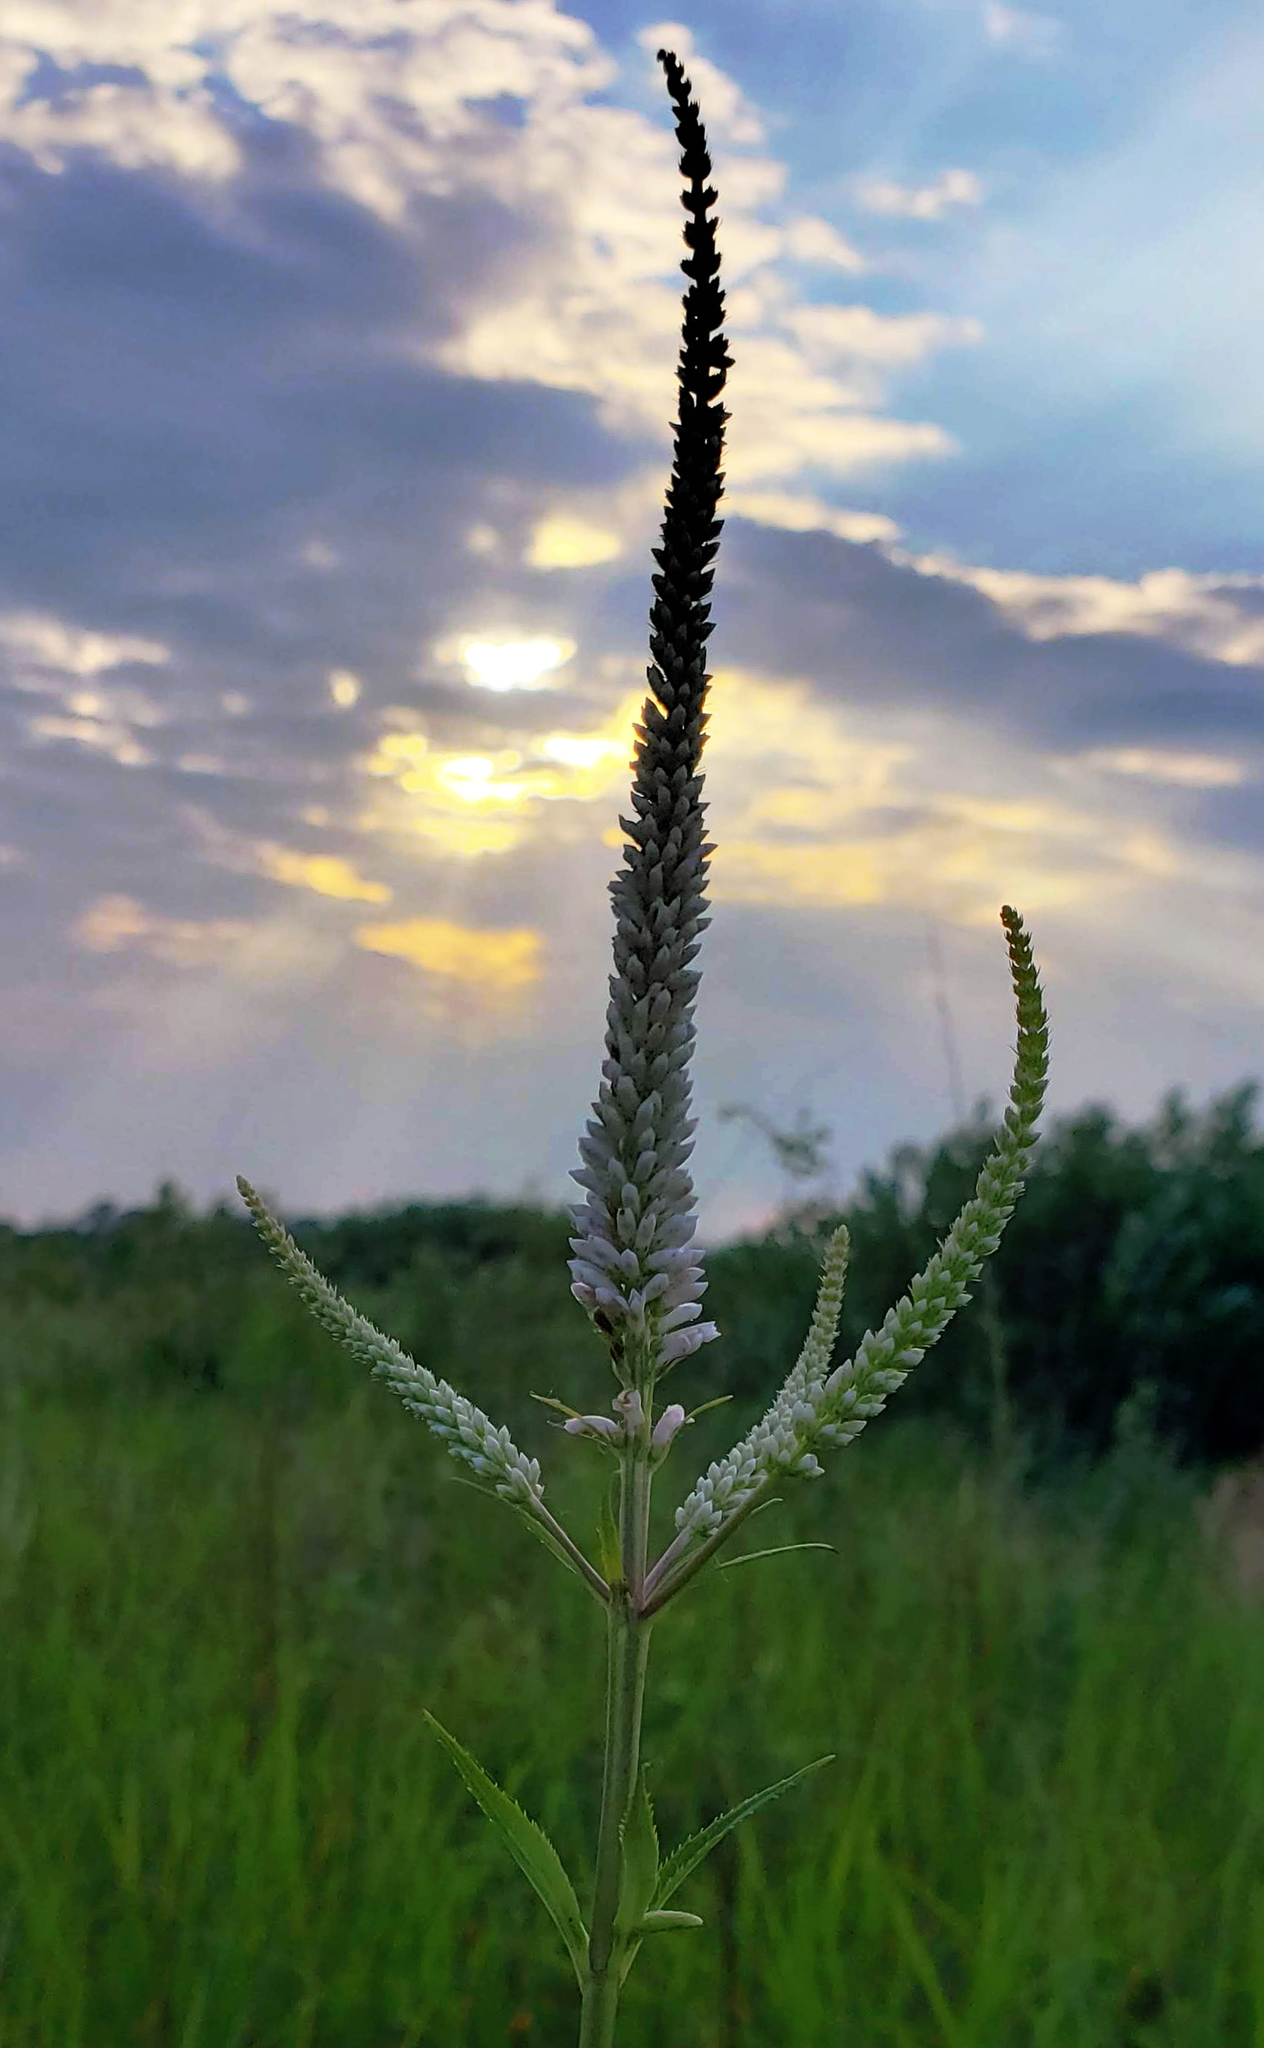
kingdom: Plantae
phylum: Tracheophyta
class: Magnoliopsida
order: Lamiales
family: Plantaginaceae
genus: Veronicastrum
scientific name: Veronicastrum virginicum
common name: Blackroot
